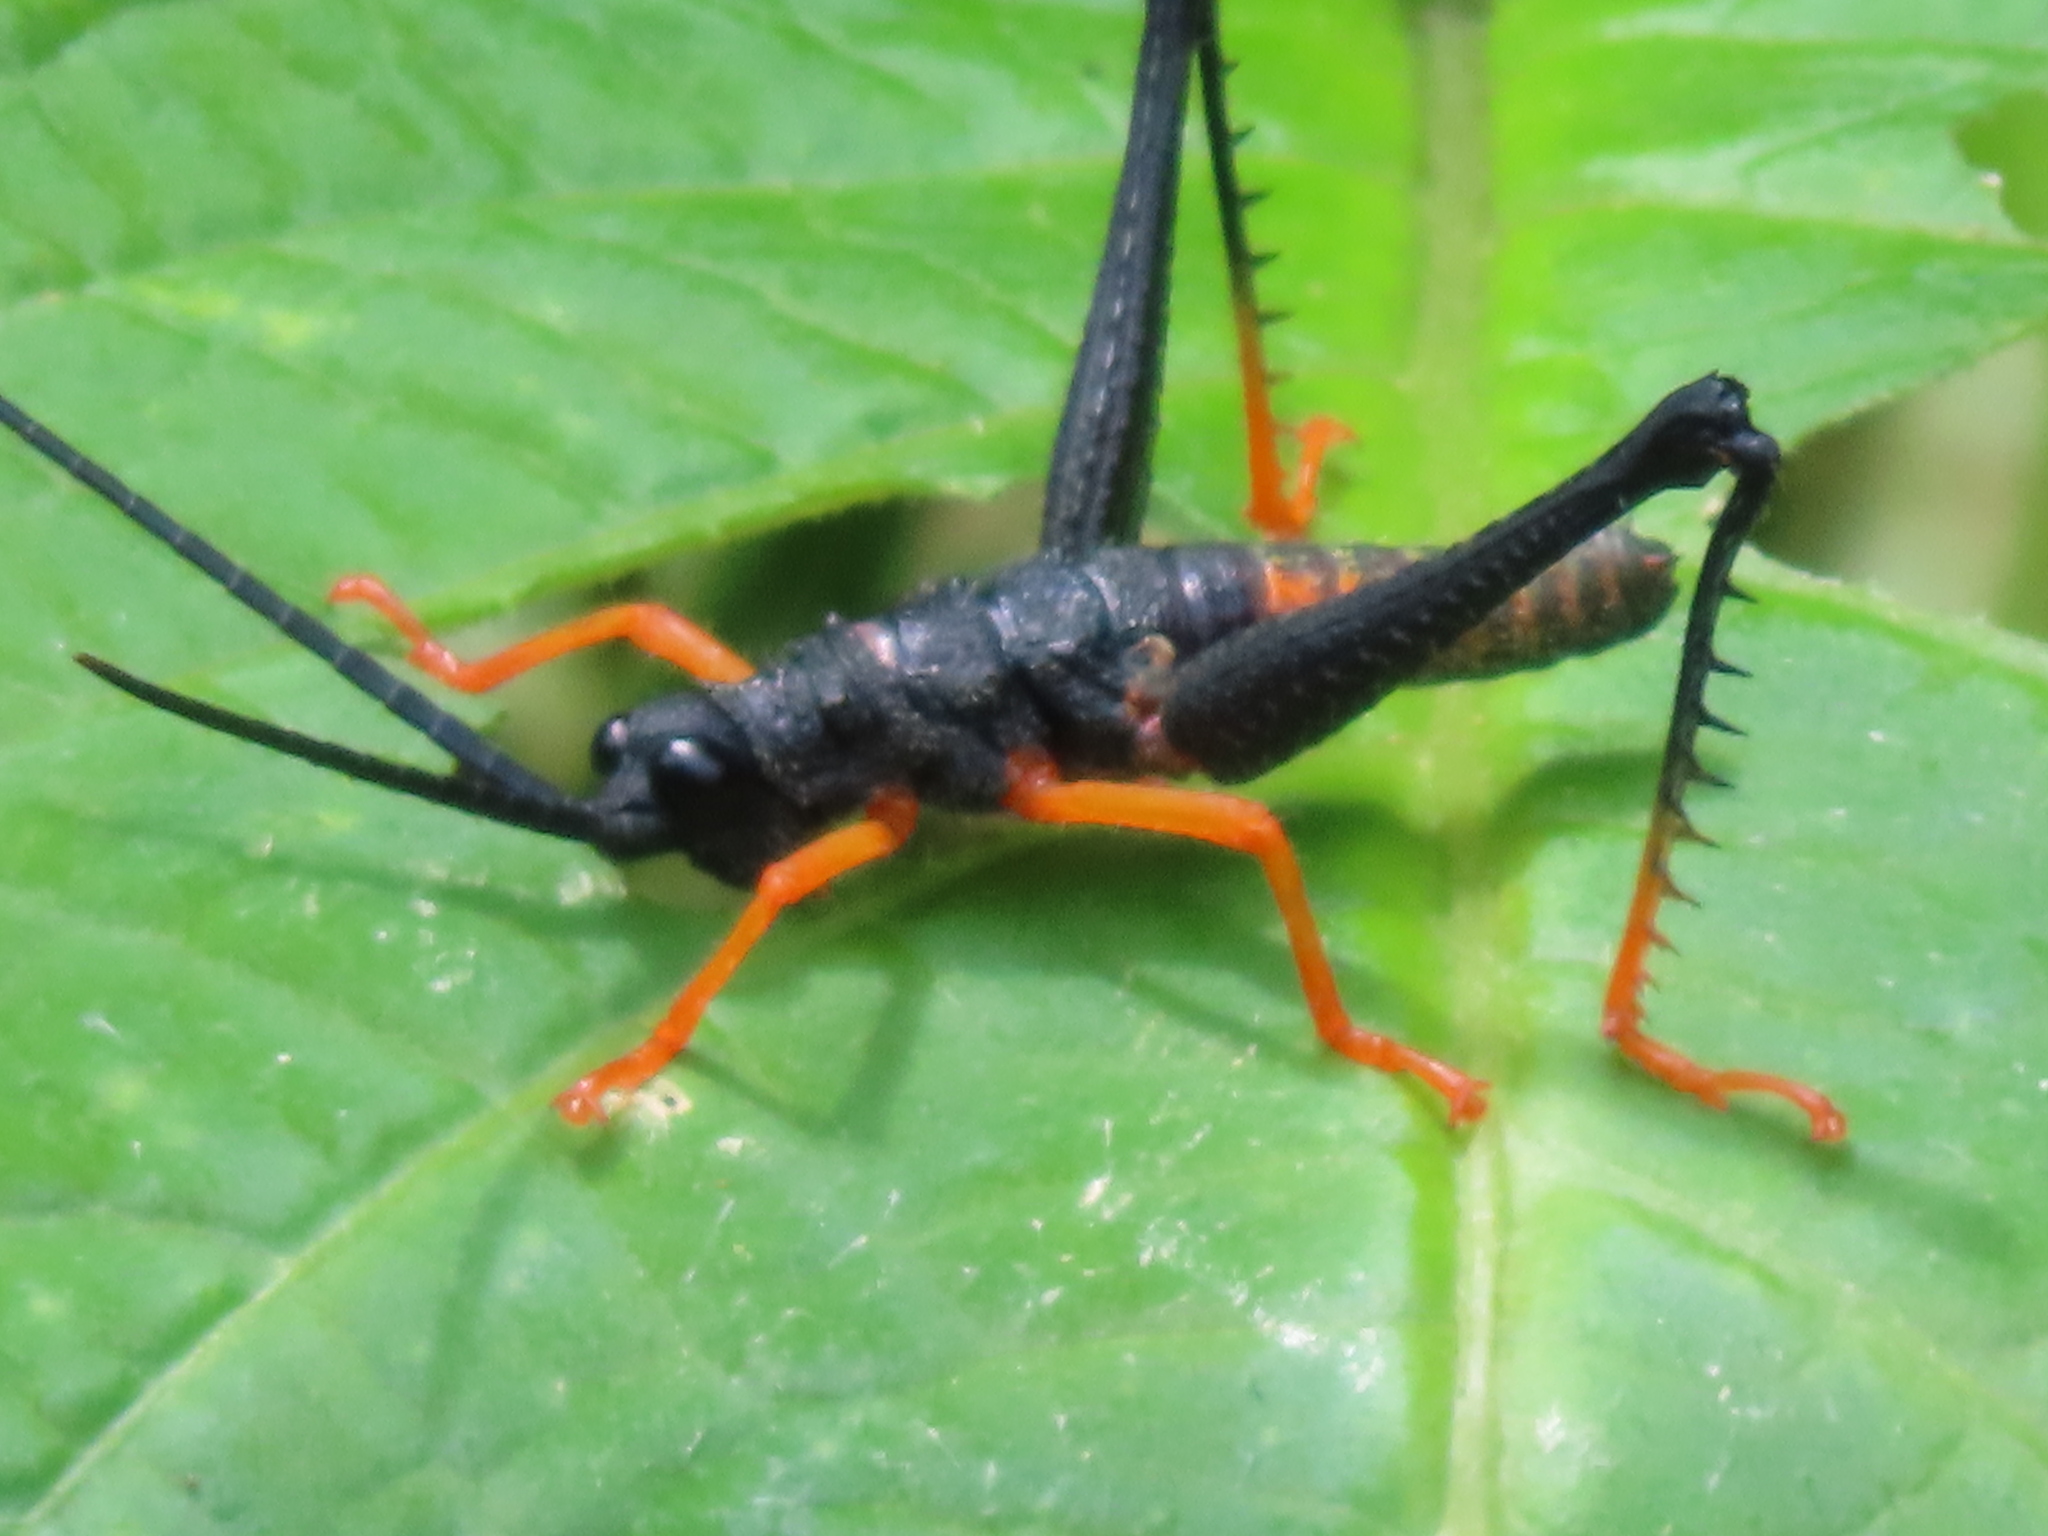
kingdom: Animalia
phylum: Arthropoda
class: Insecta
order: Orthoptera
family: Acrididae
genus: Piezops
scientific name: Piezops ensicornis
